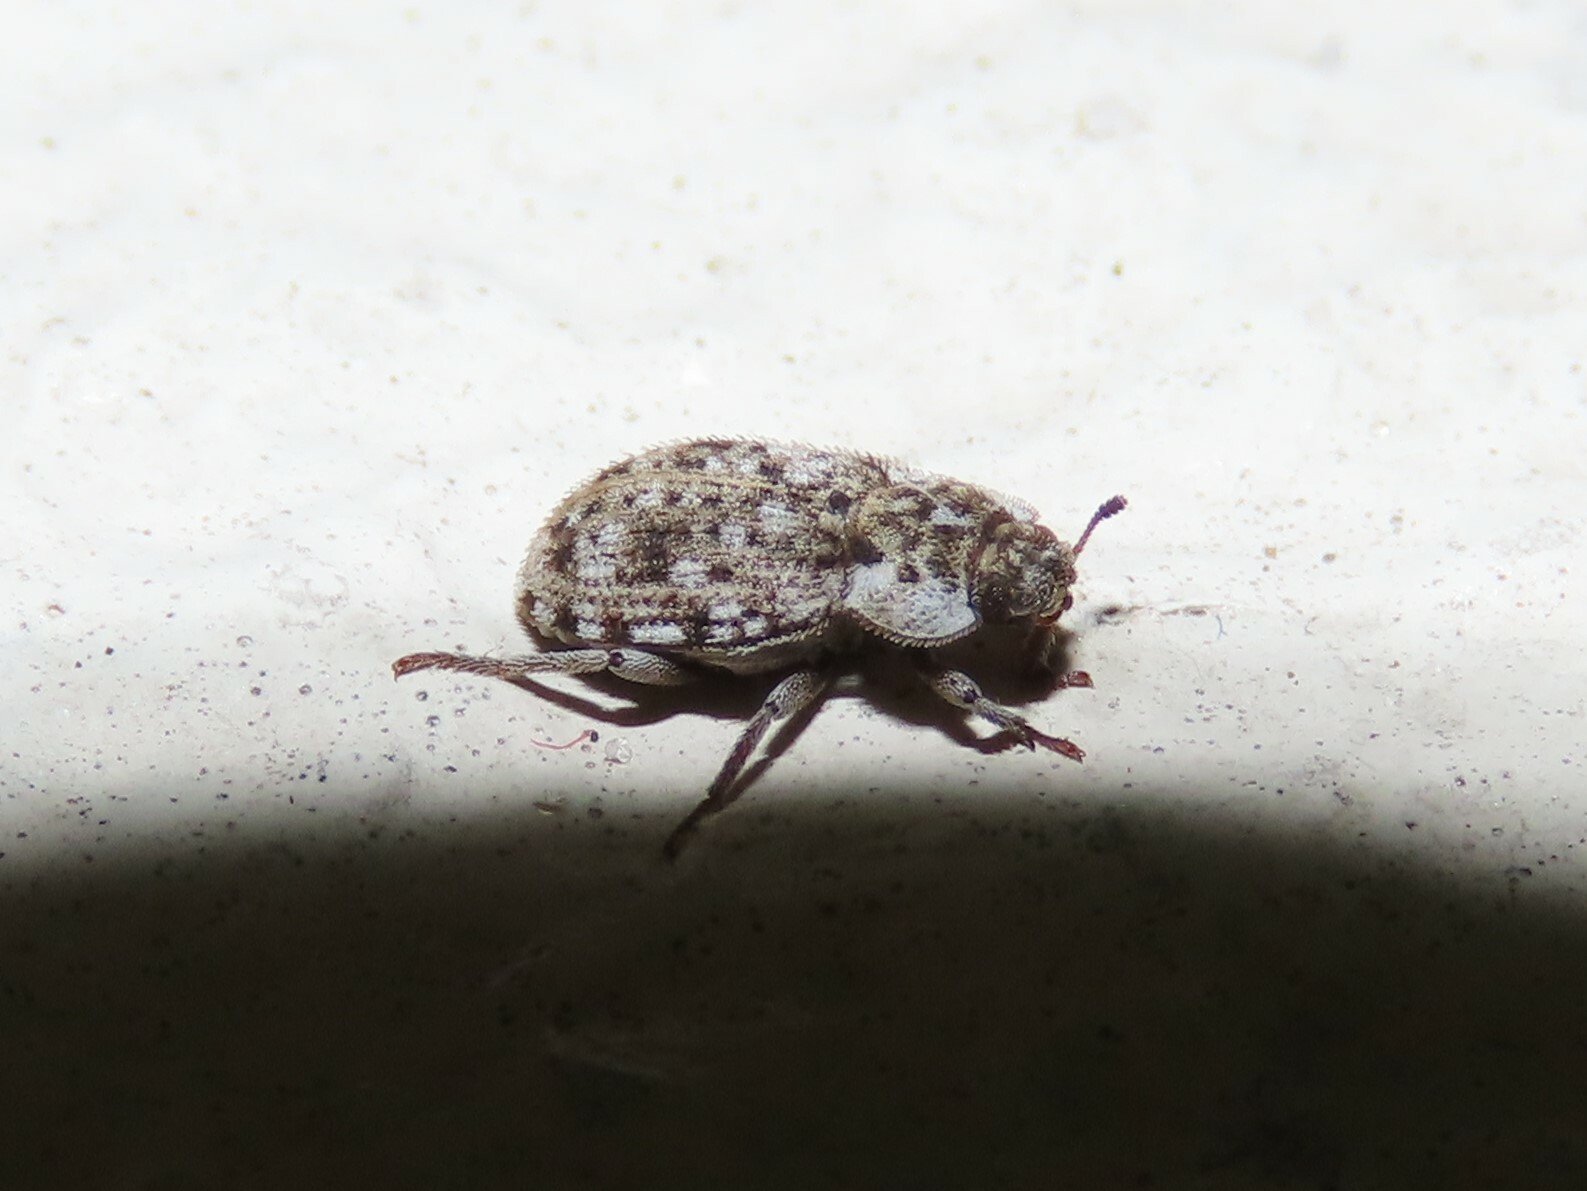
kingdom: Animalia
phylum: Arthropoda
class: Insecta
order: Coleoptera
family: Tenebrionidae
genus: Leichenum
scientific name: Leichenum canaliculatum
